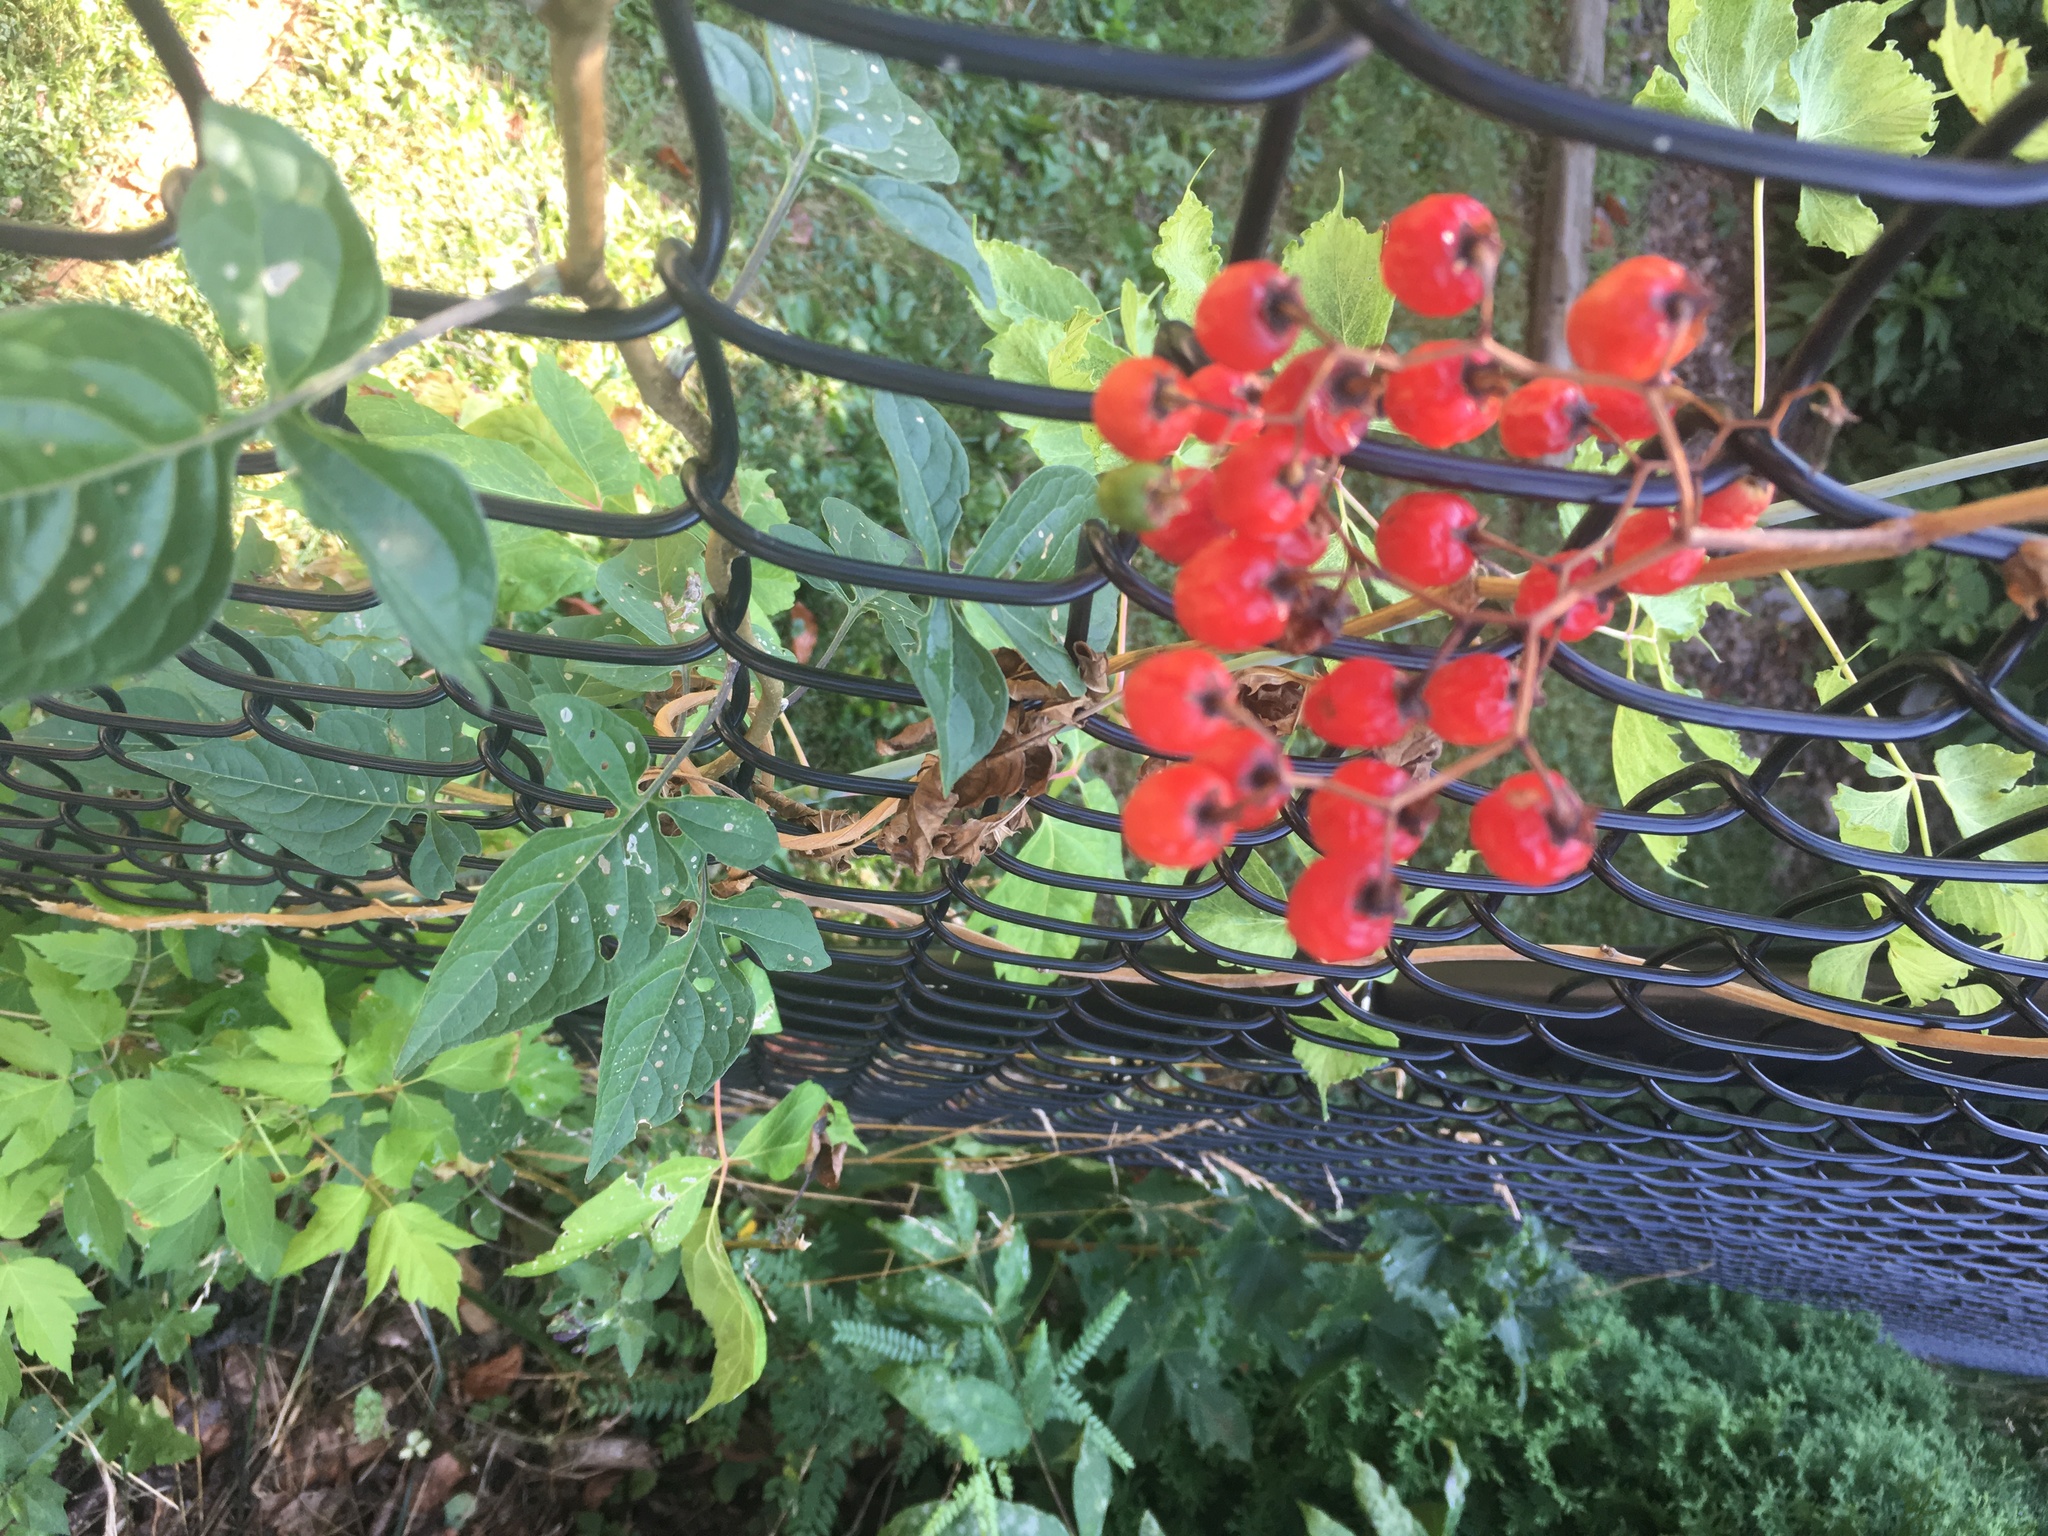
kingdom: Plantae
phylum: Tracheophyta
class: Magnoliopsida
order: Solanales
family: Solanaceae
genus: Solanum
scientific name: Solanum dulcamara
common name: Climbing nightshade
